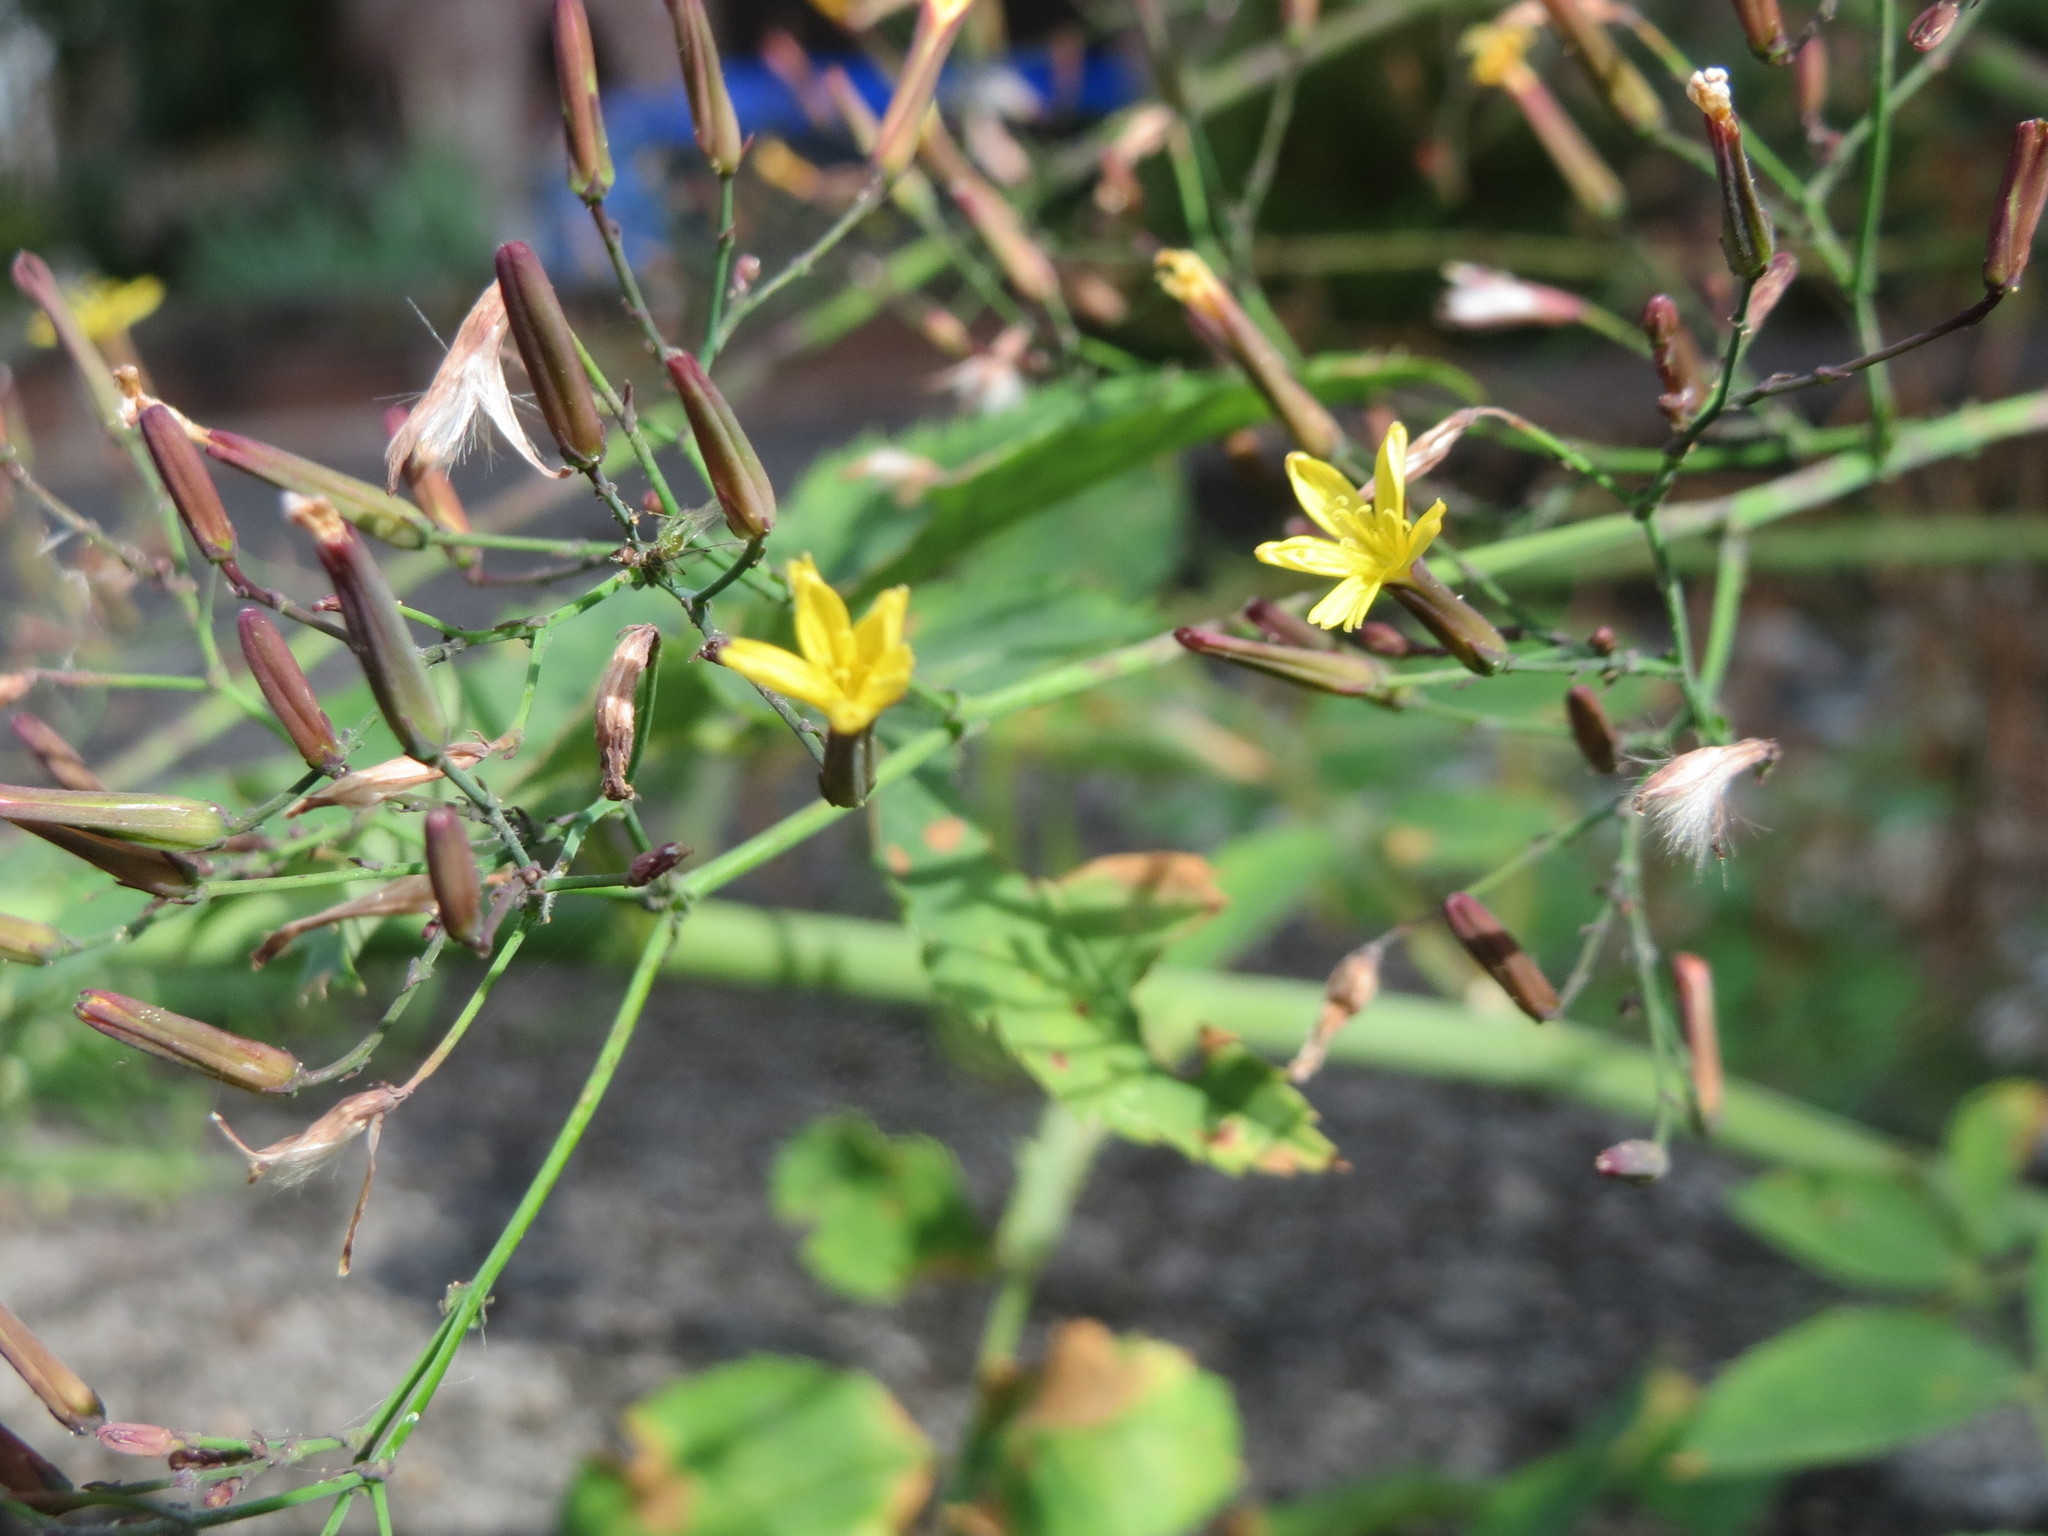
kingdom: Plantae
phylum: Tracheophyta
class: Magnoliopsida
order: Asterales
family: Asteraceae
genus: Mycelis
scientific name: Mycelis muralis
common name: Wall lettuce
